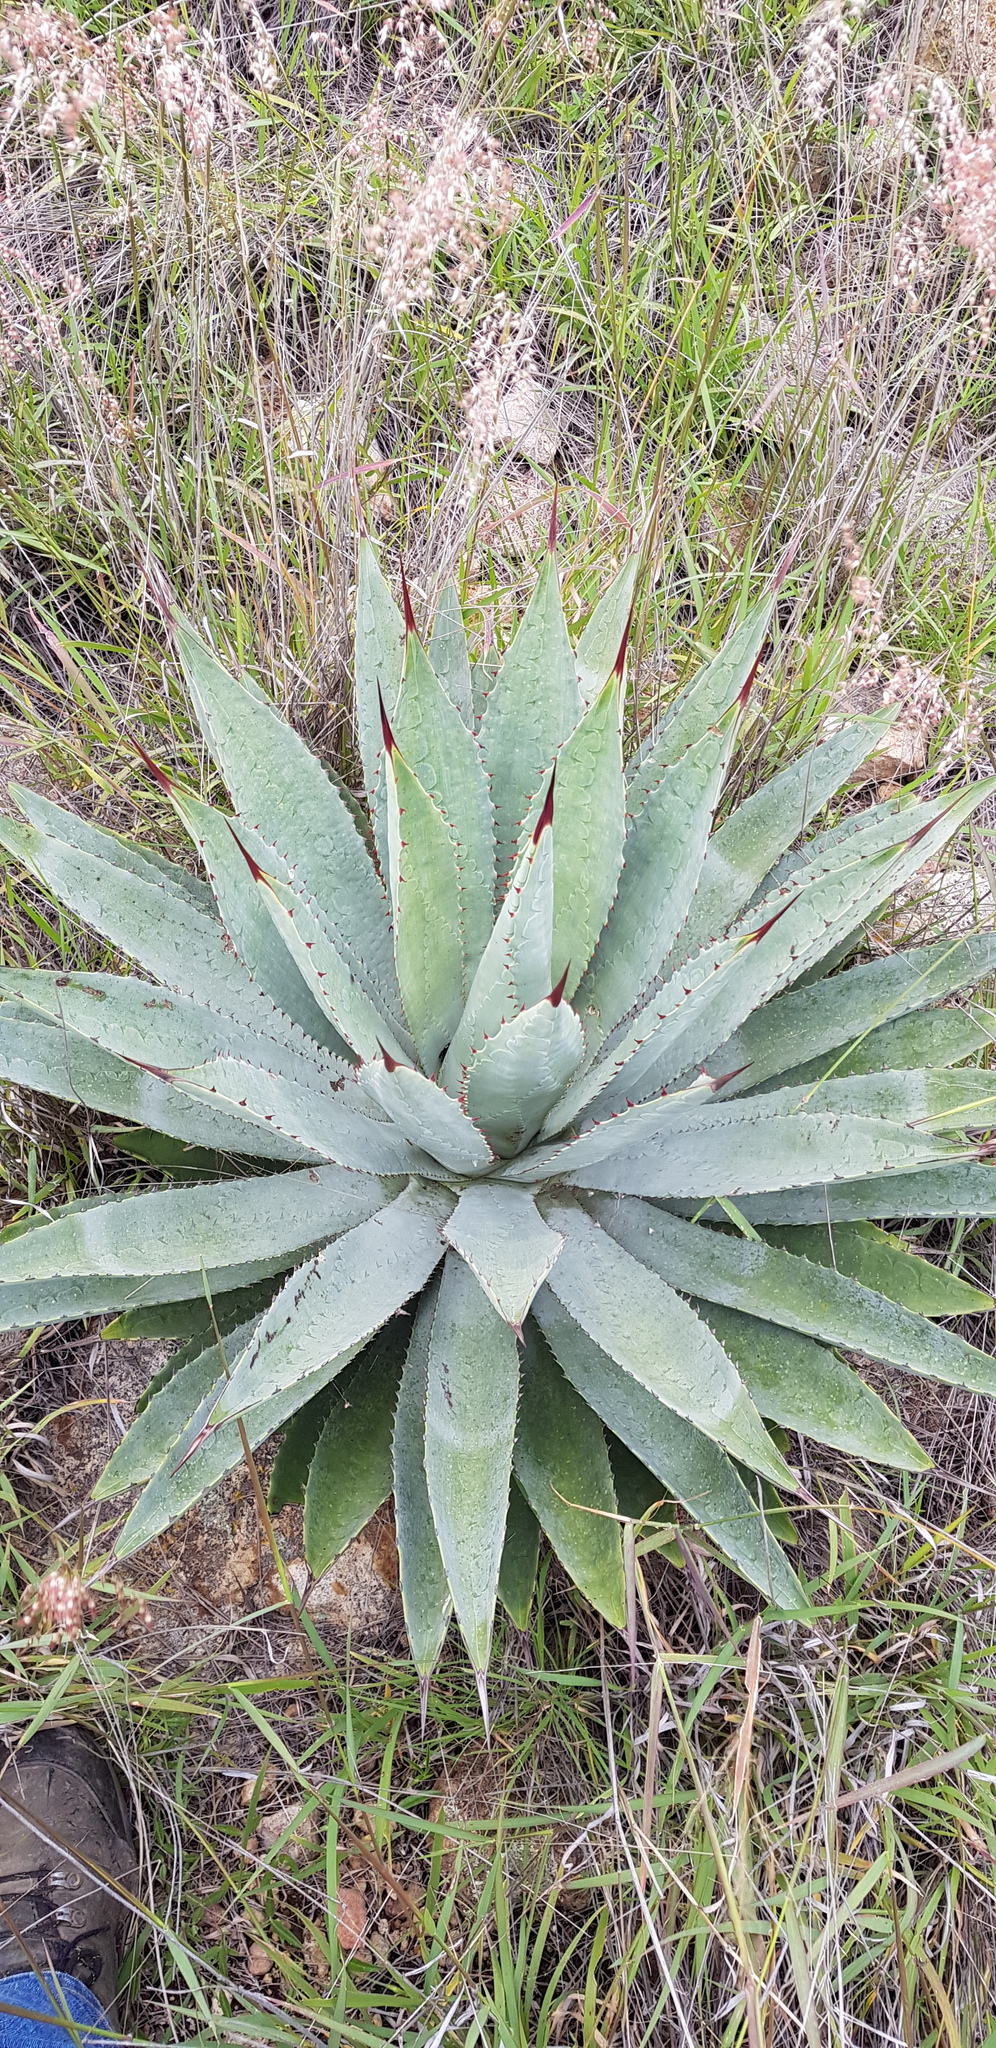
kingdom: Plantae
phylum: Tracheophyta
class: Liliopsida
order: Asparagales
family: Asparagaceae
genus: Agave
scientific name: Agave
